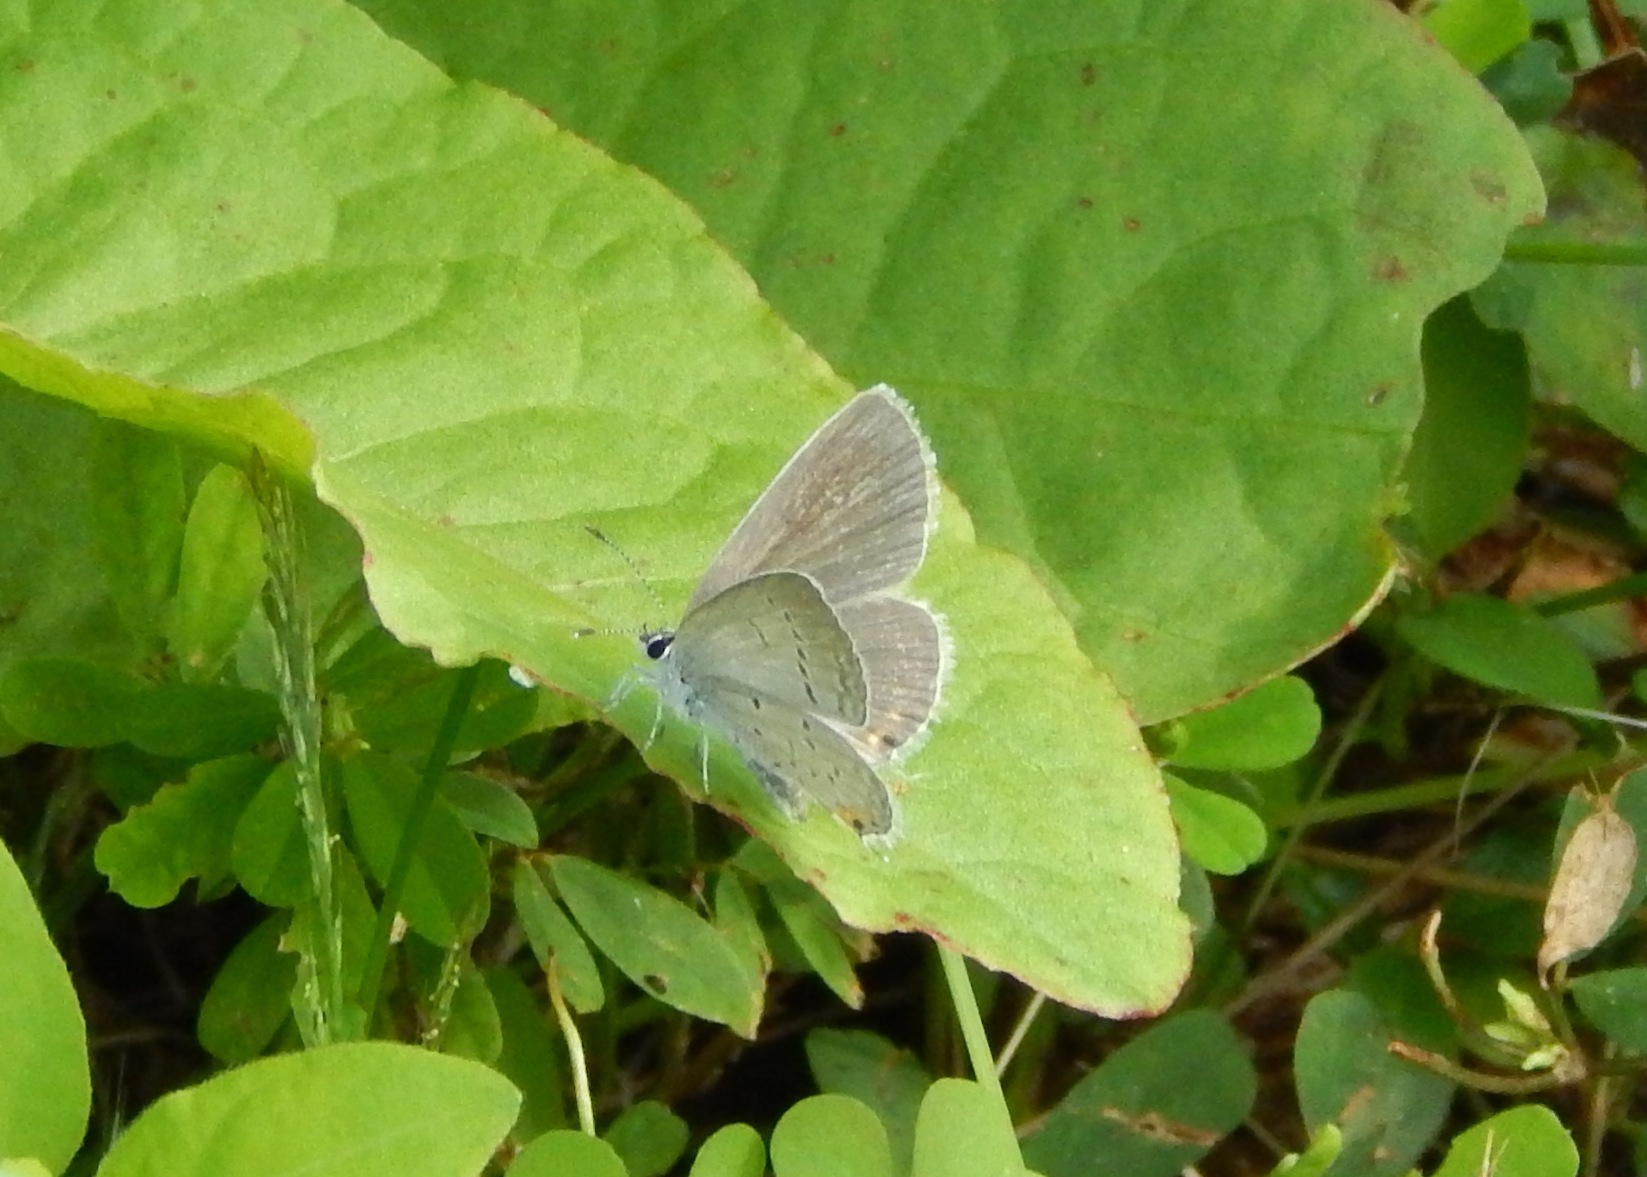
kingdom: Animalia
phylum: Arthropoda
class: Insecta
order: Lepidoptera
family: Lycaenidae
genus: Elkalyce
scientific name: Elkalyce comyntas
